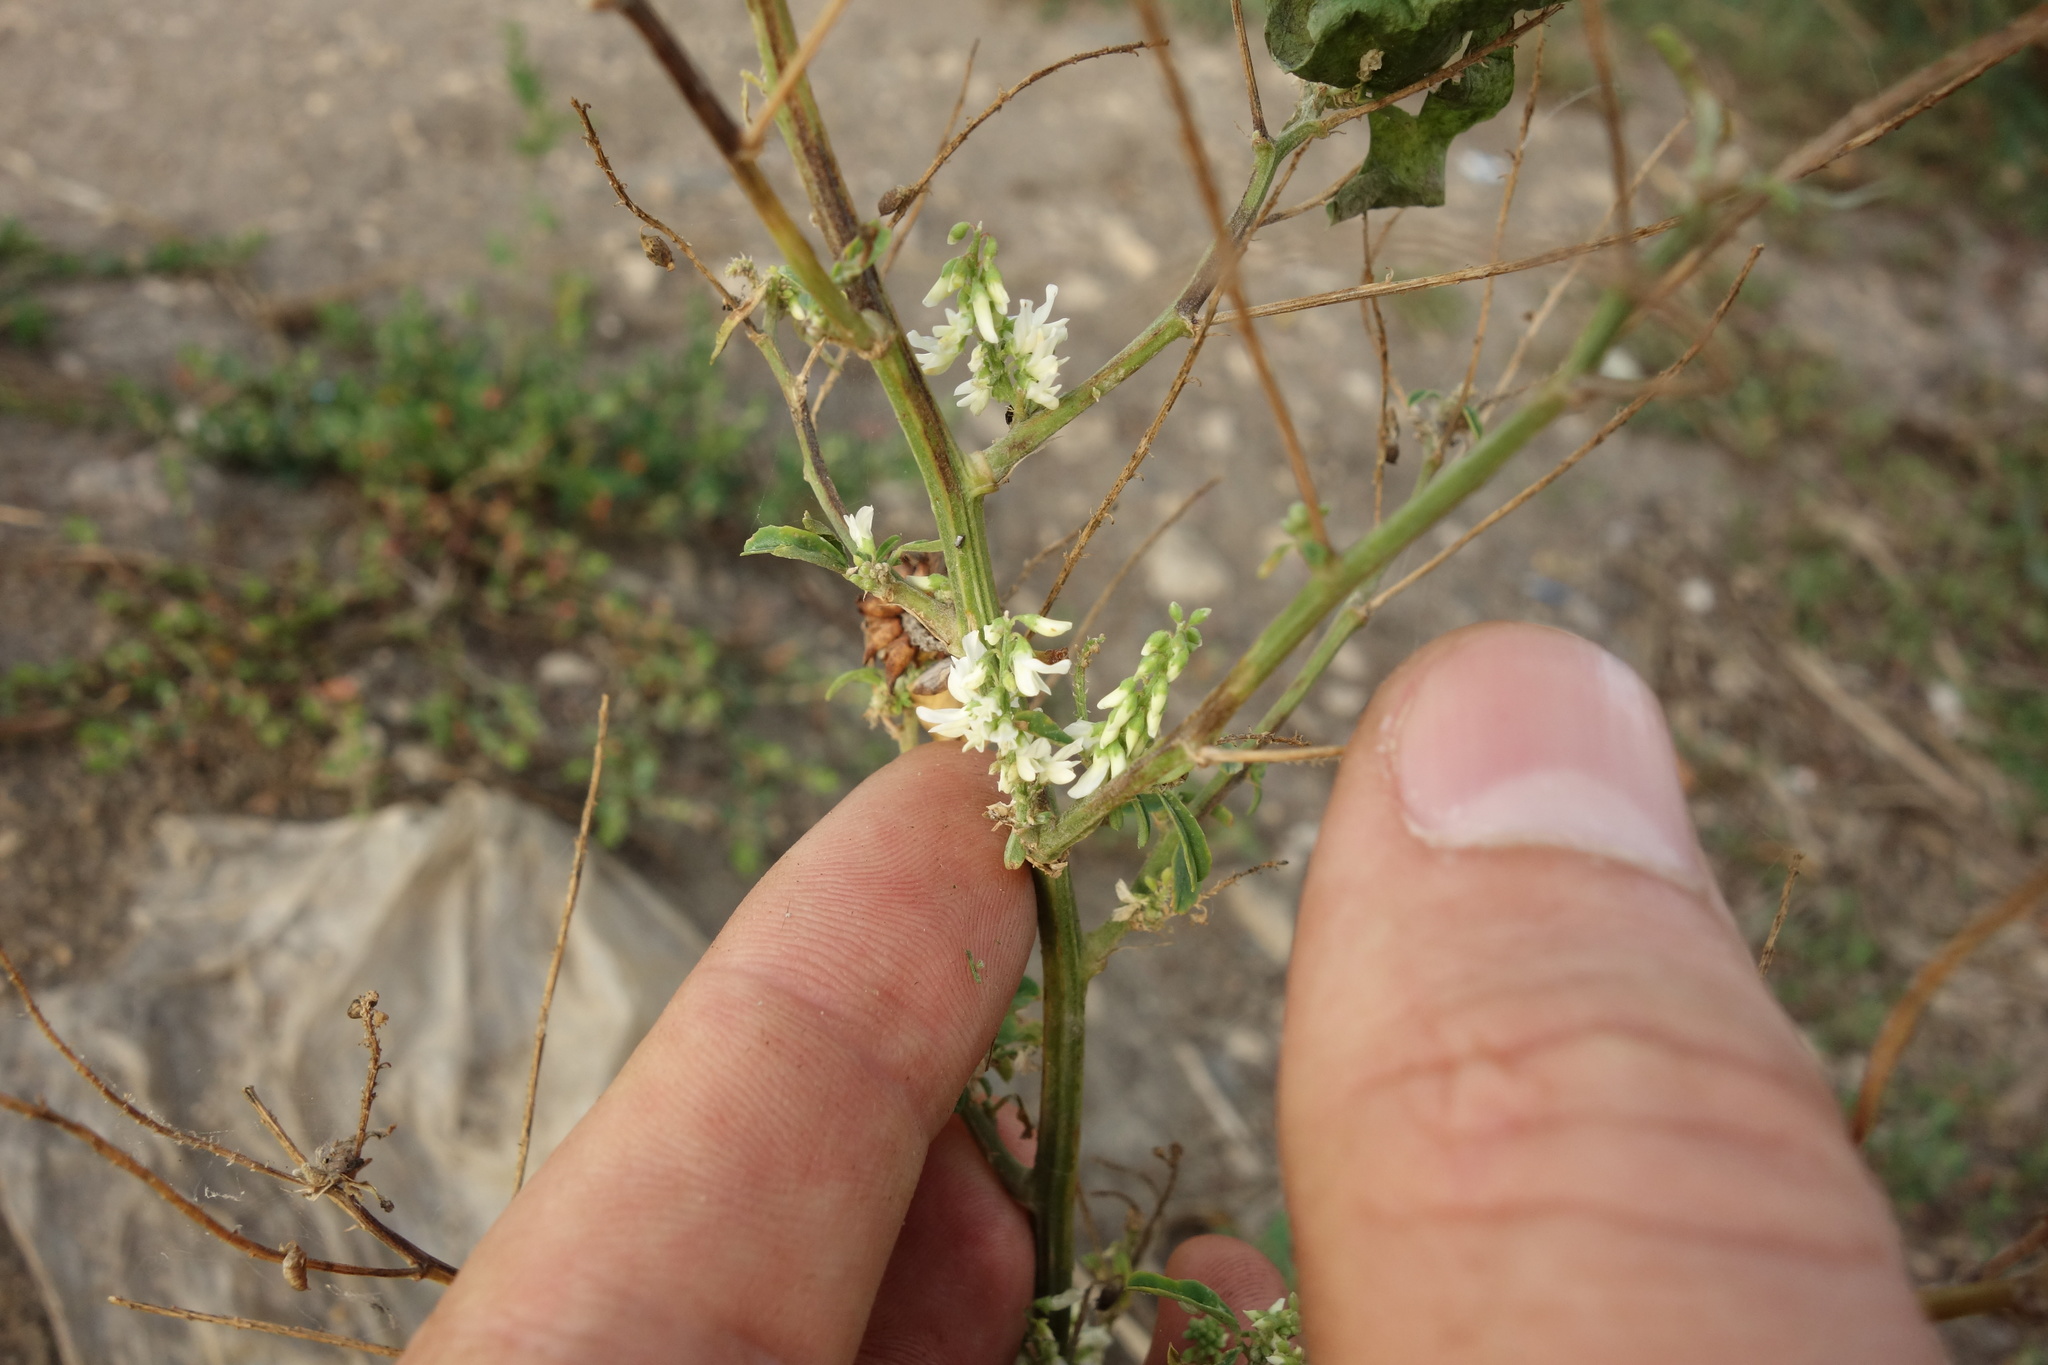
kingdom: Plantae
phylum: Tracheophyta
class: Magnoliopsida
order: Fabales
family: Fabaceae
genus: Melilotus
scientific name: Melilotus albus
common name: White melilot
